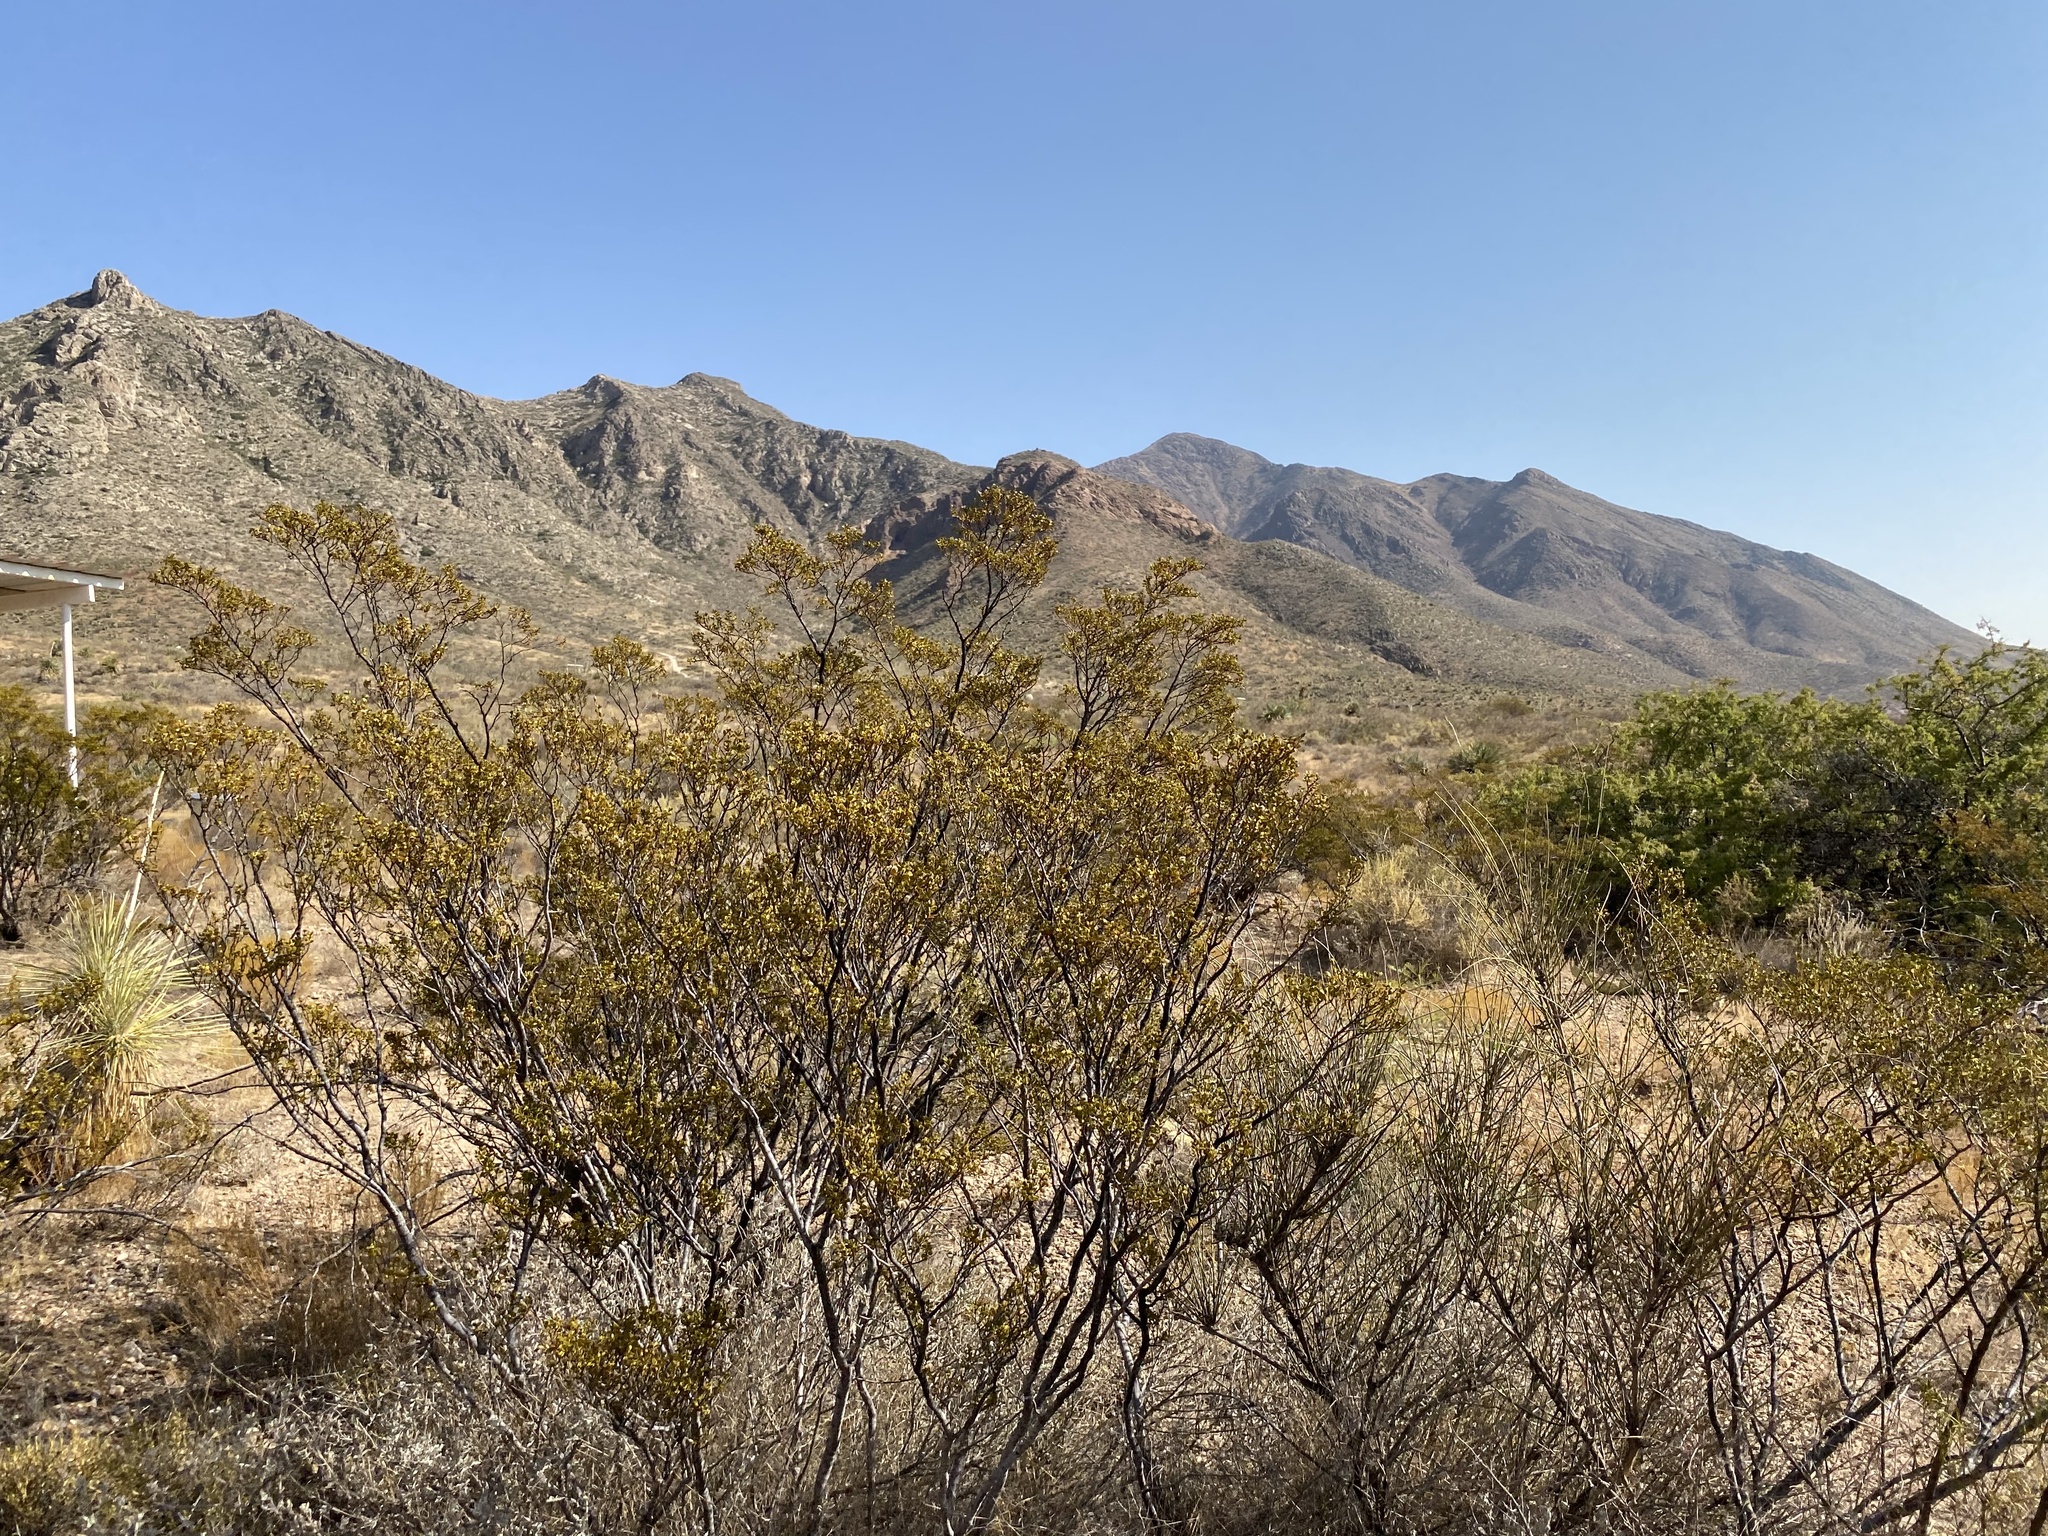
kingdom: Plantae
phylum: Tracheophyta
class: Magnoliopsida
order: Zygophyllales
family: Zygophyllaceae
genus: Larrea
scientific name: Larrea tridentata
